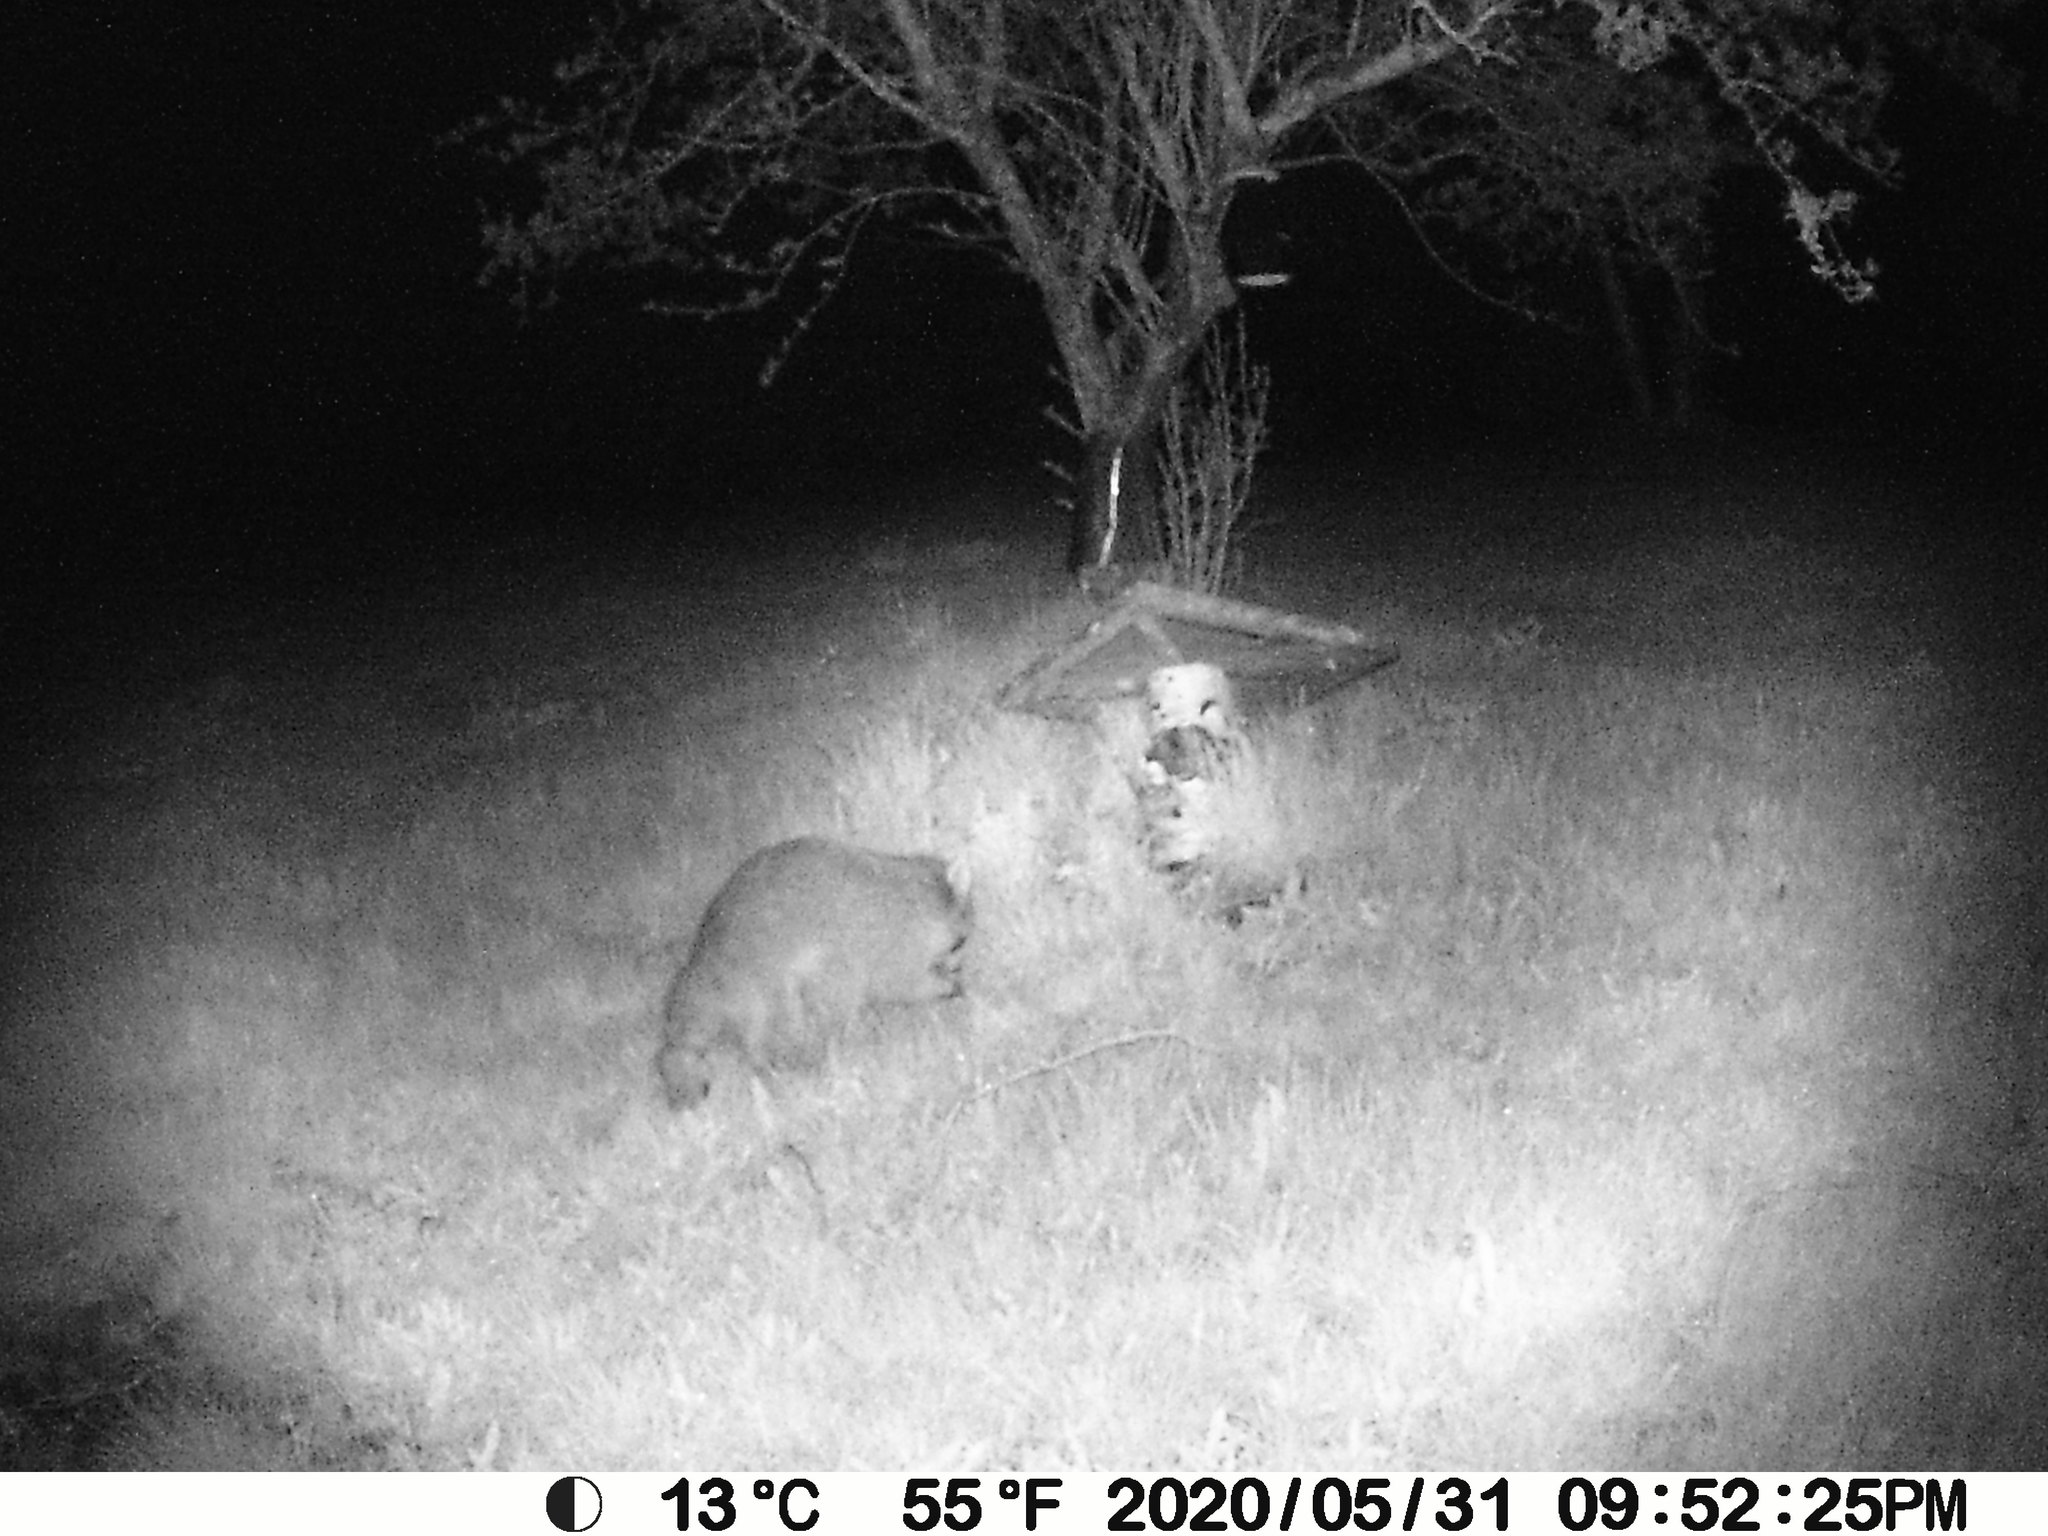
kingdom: Animalia
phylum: Chordata
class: Mammalia
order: Carnivora
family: Procyonidae
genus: Procyon
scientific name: Procyon lotor
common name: Raccoon
